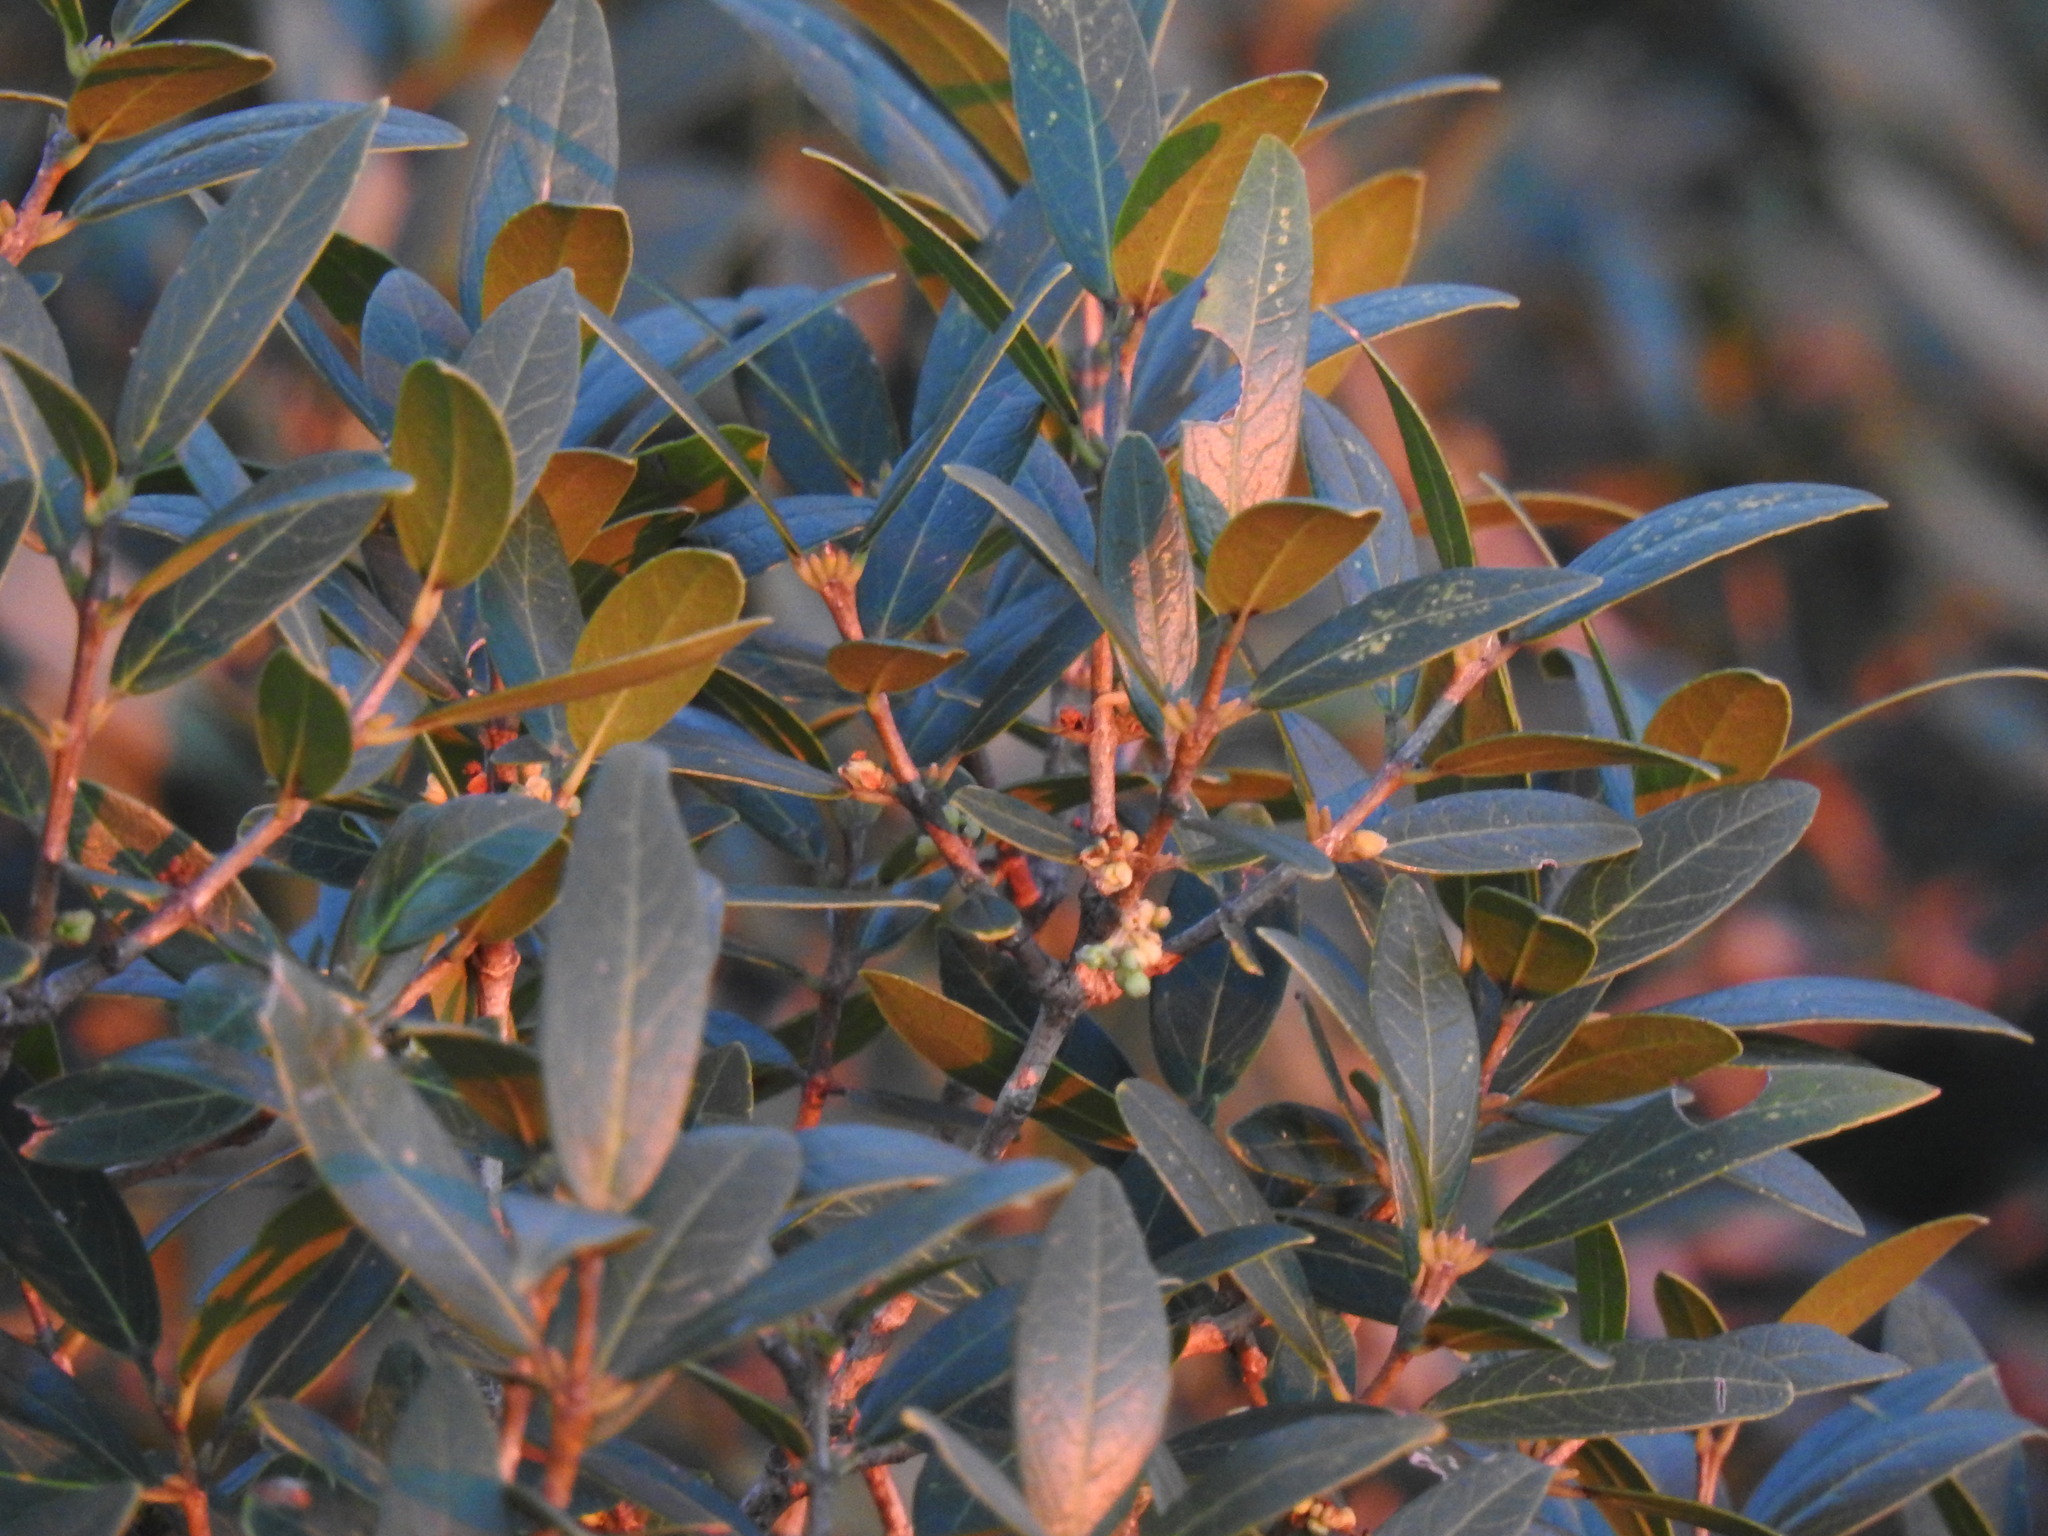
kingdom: Plantae
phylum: Tracheophyta
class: Magnoliopsida
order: Lamiales
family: Oleaceae
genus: Phillyrea
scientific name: Phillyrea latifolia
